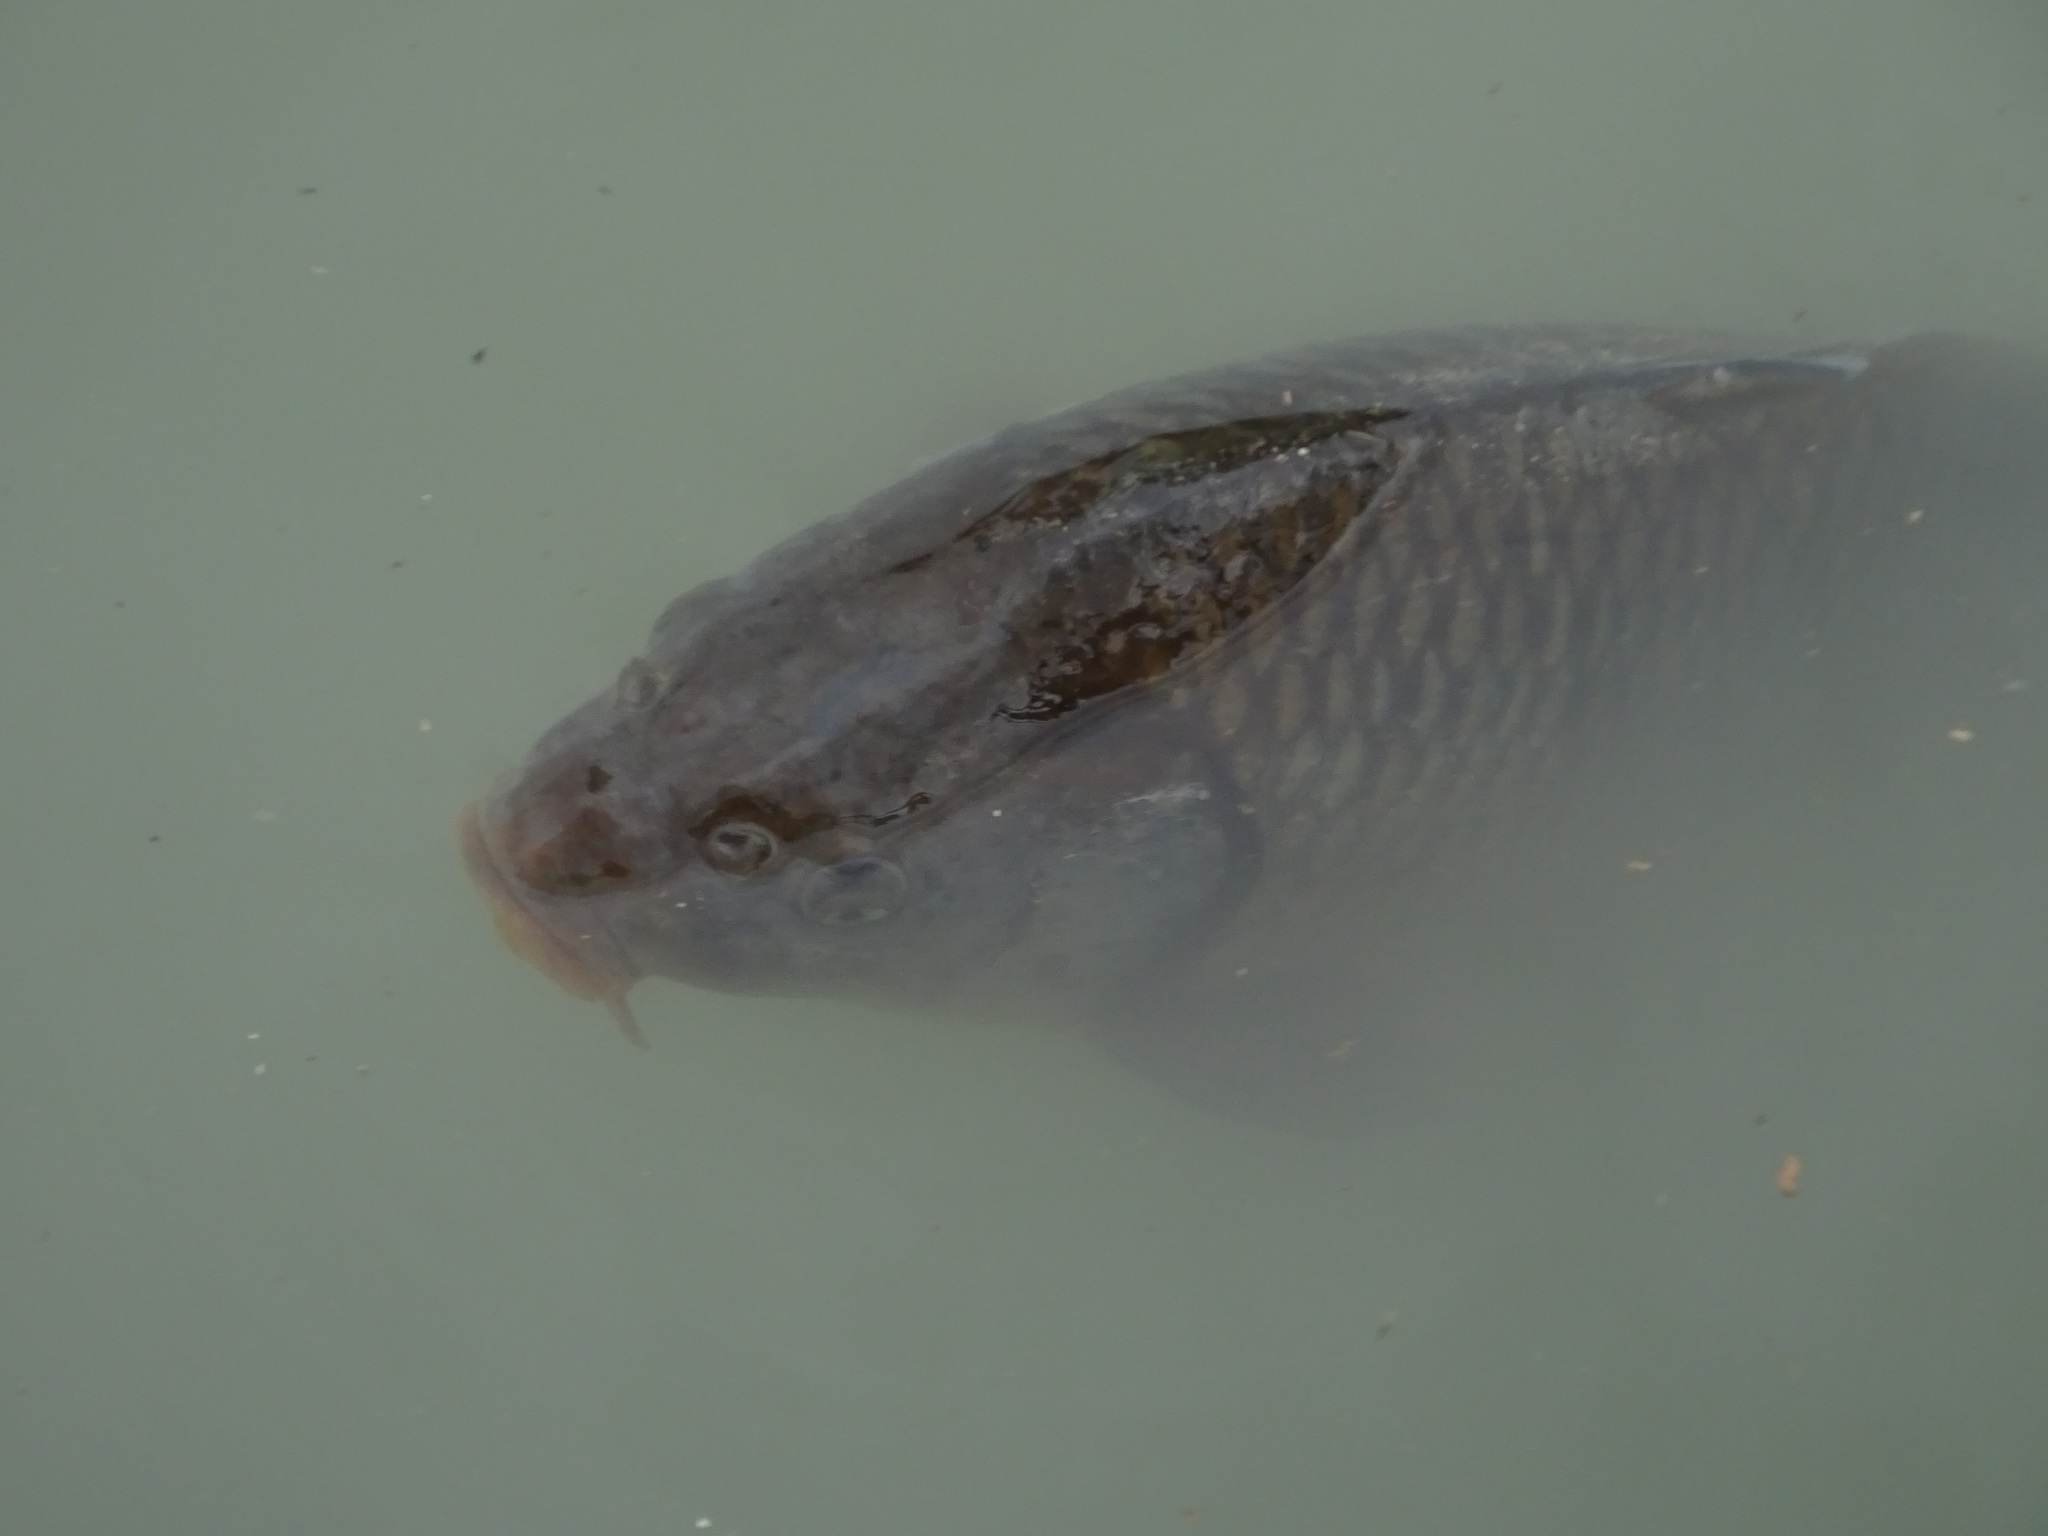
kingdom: Animalia
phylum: Chordata
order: Cypriniformes
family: Cyprinidae
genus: Cyprinus
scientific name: Cyprinus carpio
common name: Common carp
